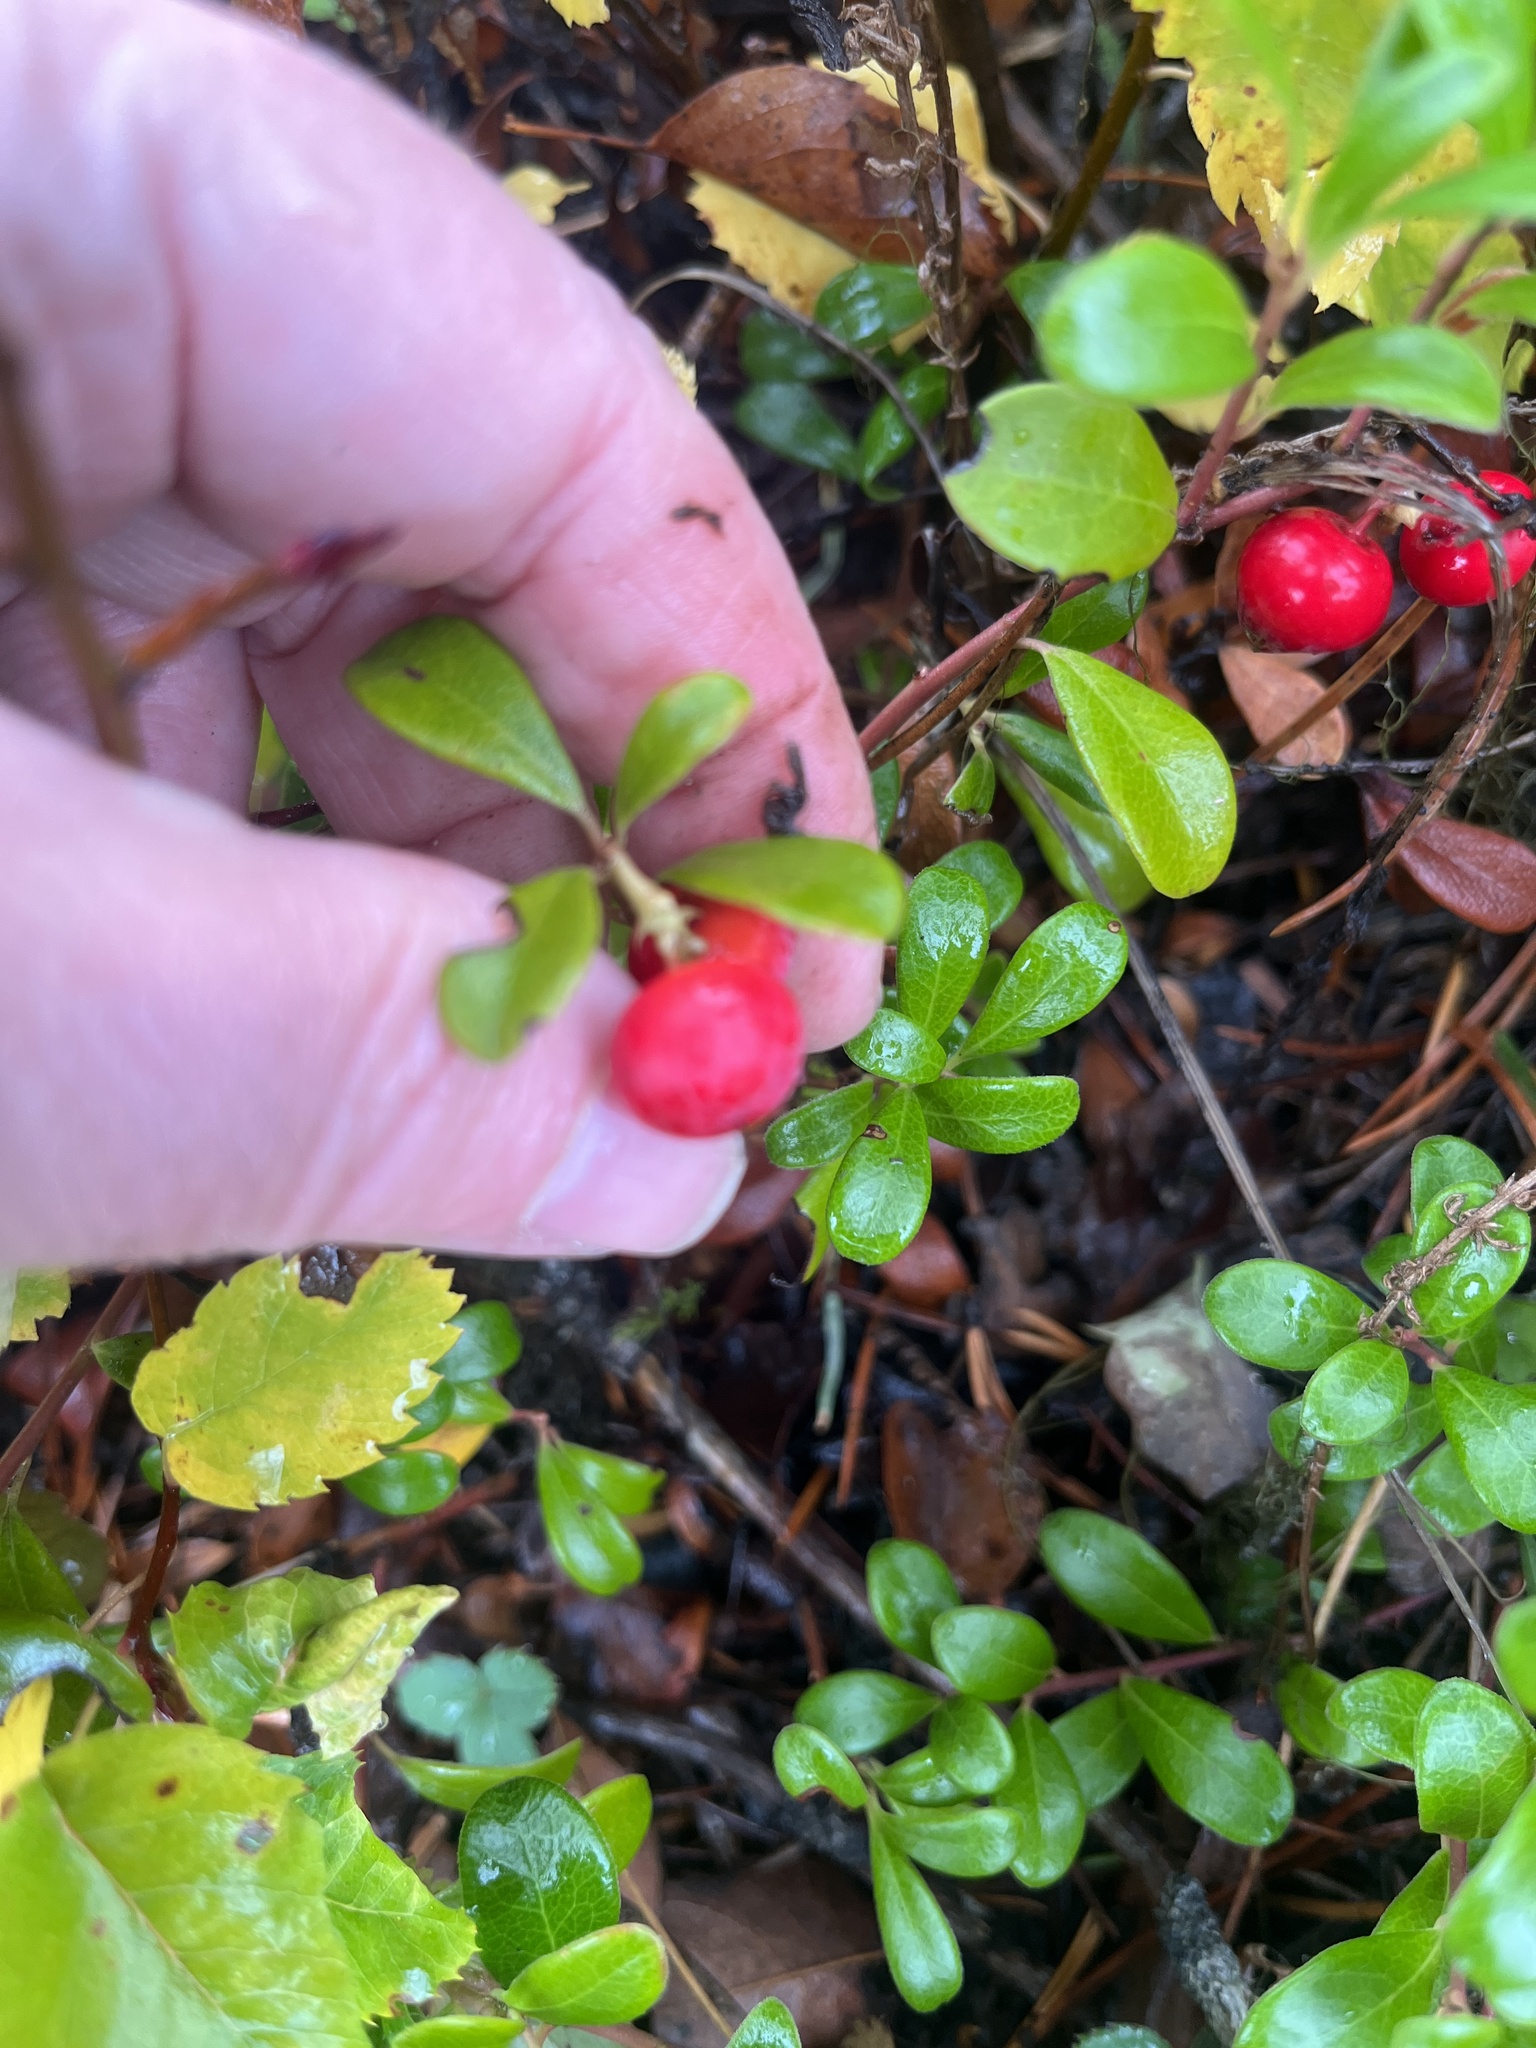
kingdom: Plantae
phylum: Tracheophyta
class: Magnoliopsida
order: Ericales
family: Ericaceae
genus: Arctostaphylos
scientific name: Arctostaphylos uva-ursi
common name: Bearberry
